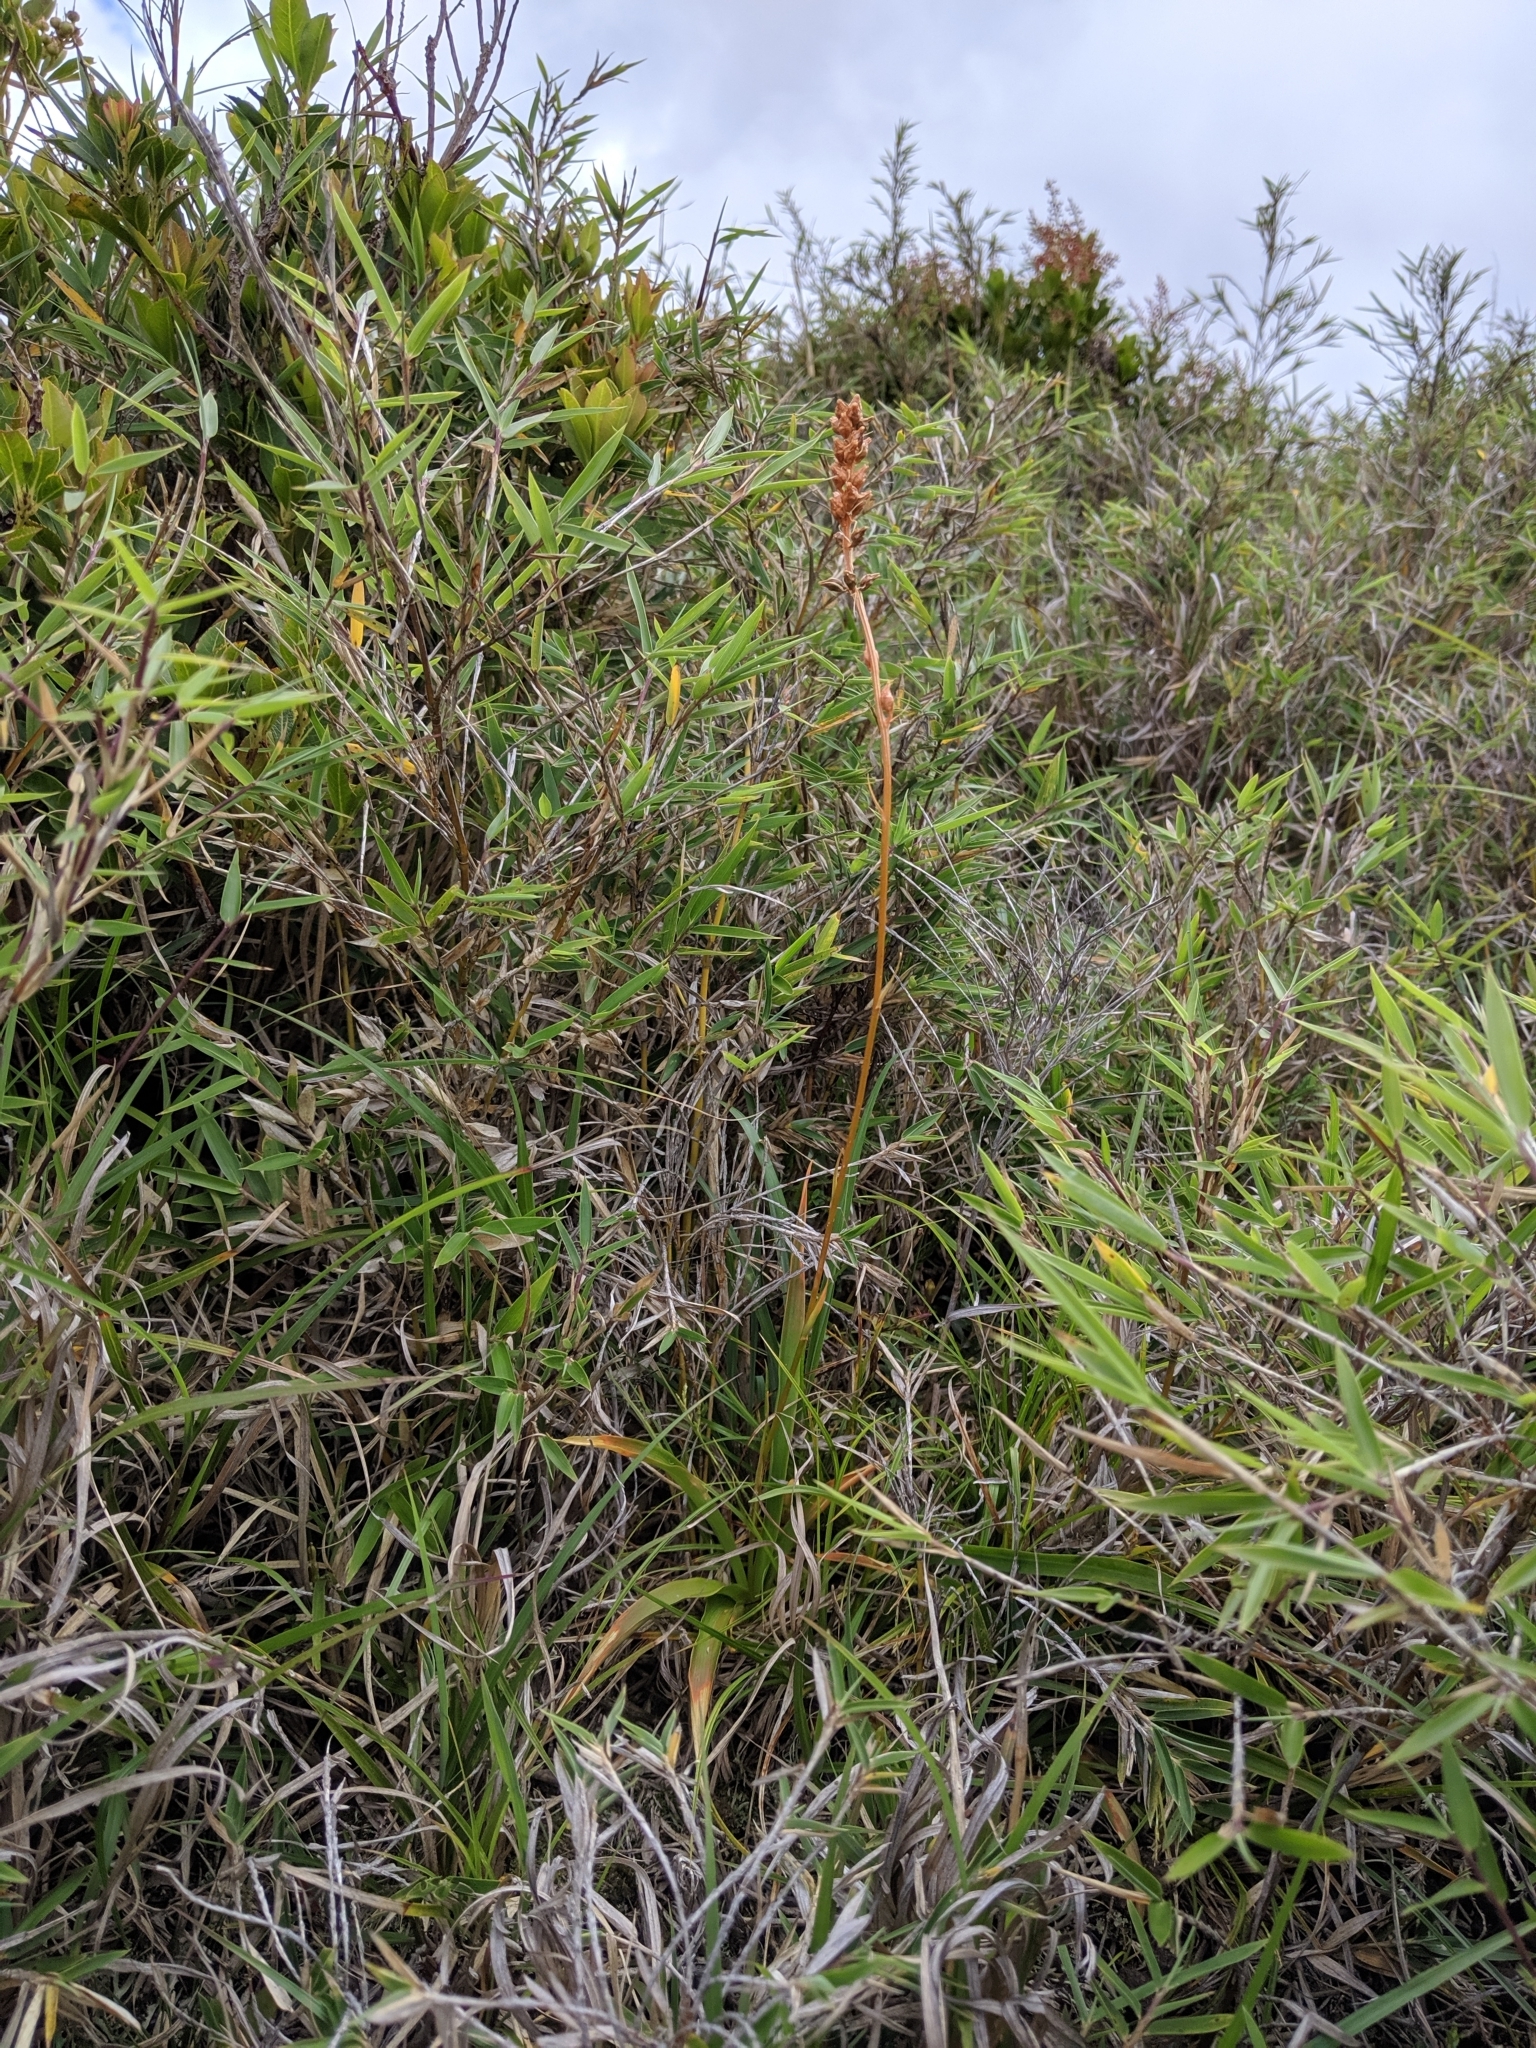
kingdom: Plantae
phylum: Tracheophyta
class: Liliopsida
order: Dioscoreales
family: Nartheciaceae
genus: Aletris
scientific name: Aletris glabra
